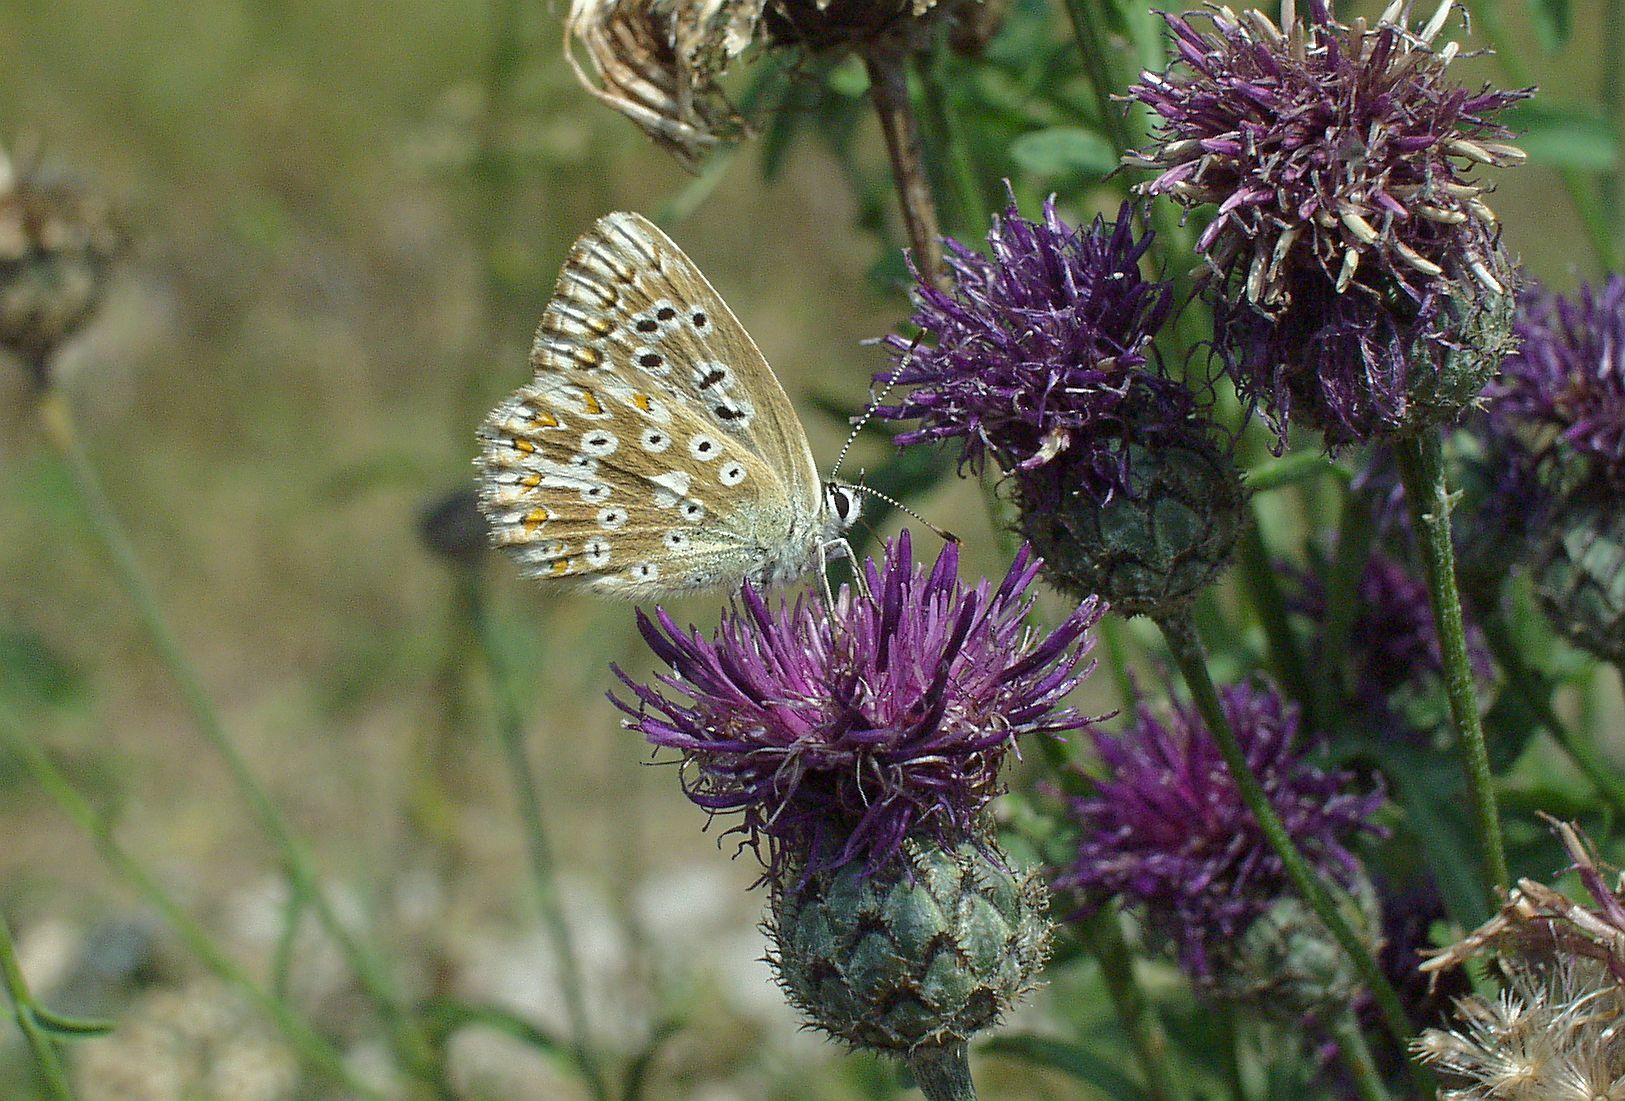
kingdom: Animalia
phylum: Arthropoda
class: Insecta
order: Lepidoptera
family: Lycaenidae
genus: Lysandra
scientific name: Lysandra bellargus
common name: Adonis blue
